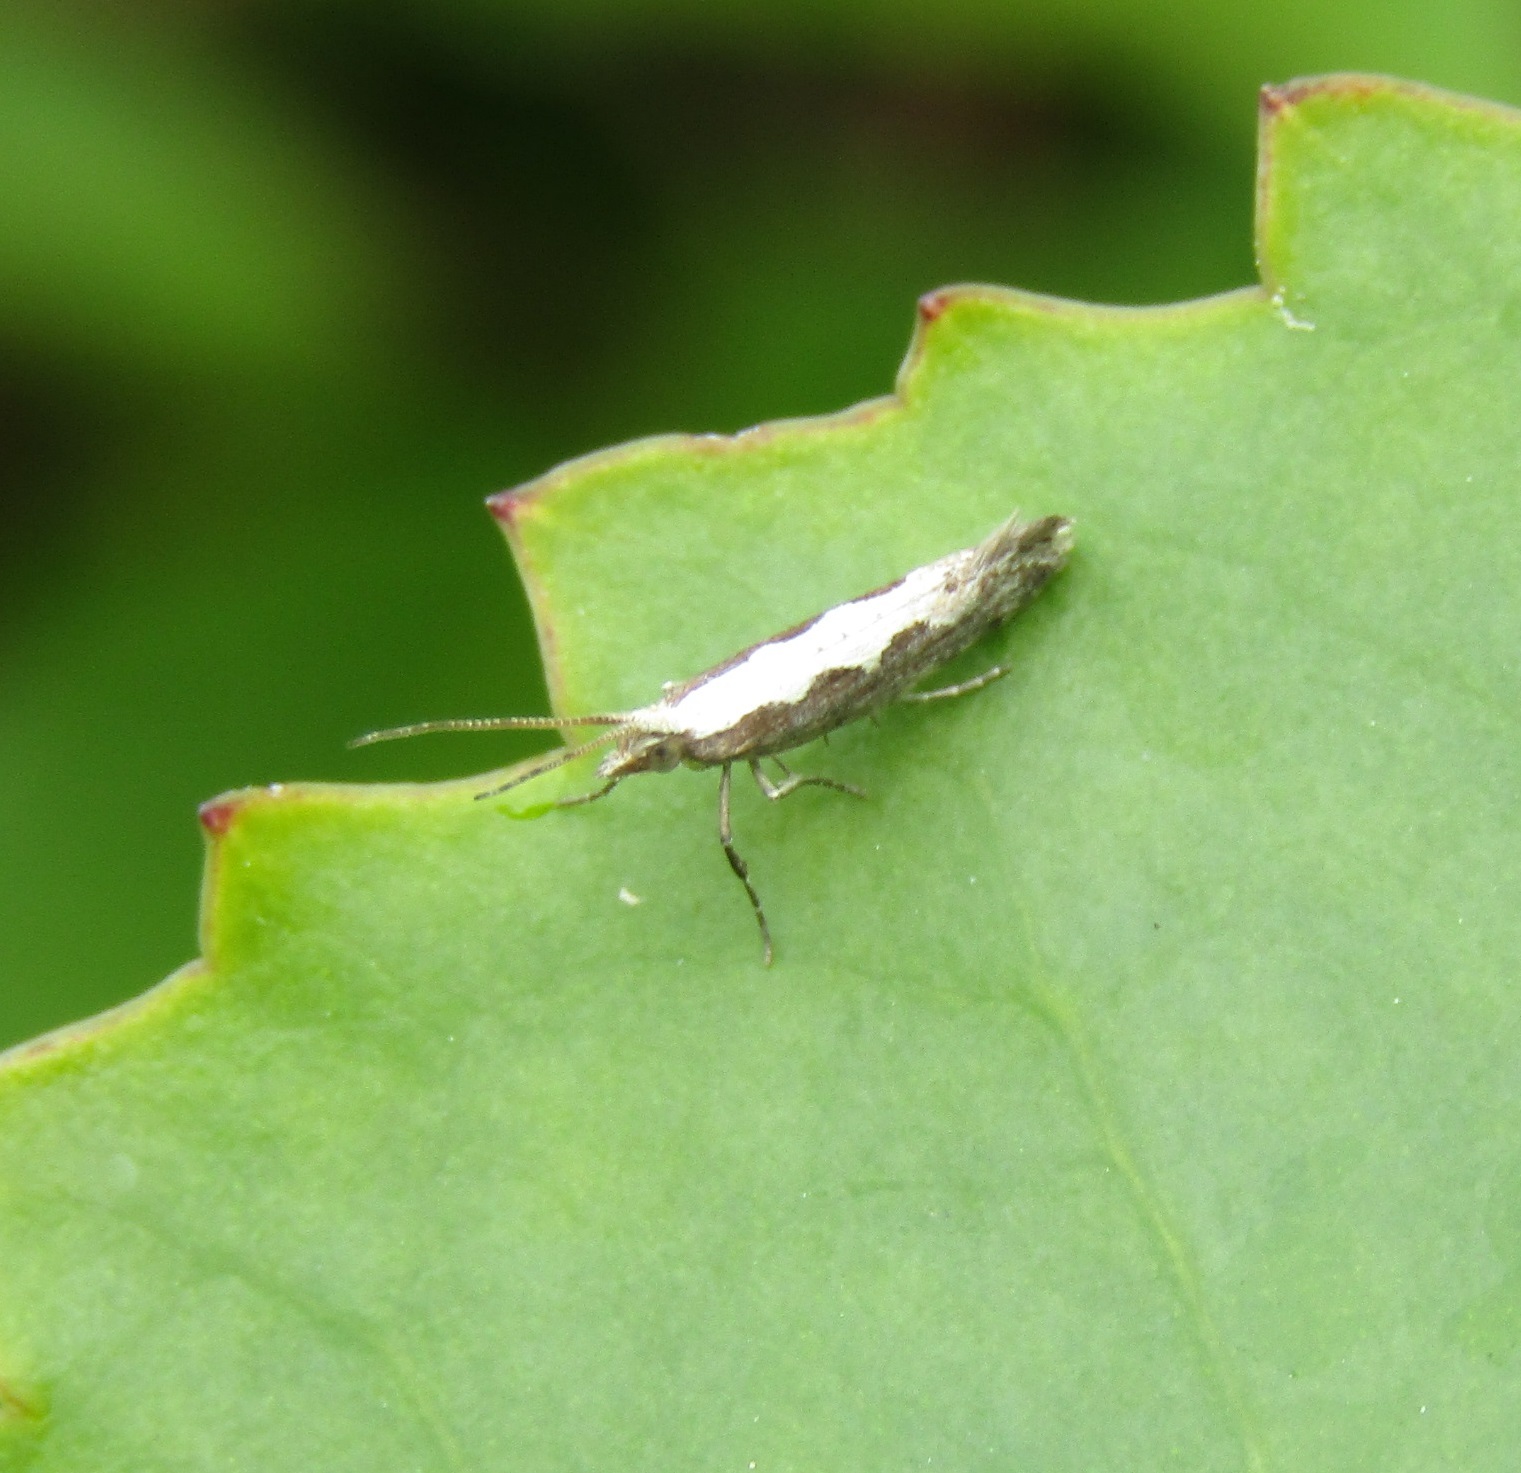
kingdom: Animalia
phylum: Arthropoda
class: Insecta
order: Lepidoptera
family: Plutellidae
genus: Plutella
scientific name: Plutella xylostella
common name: Diamond-back moth
